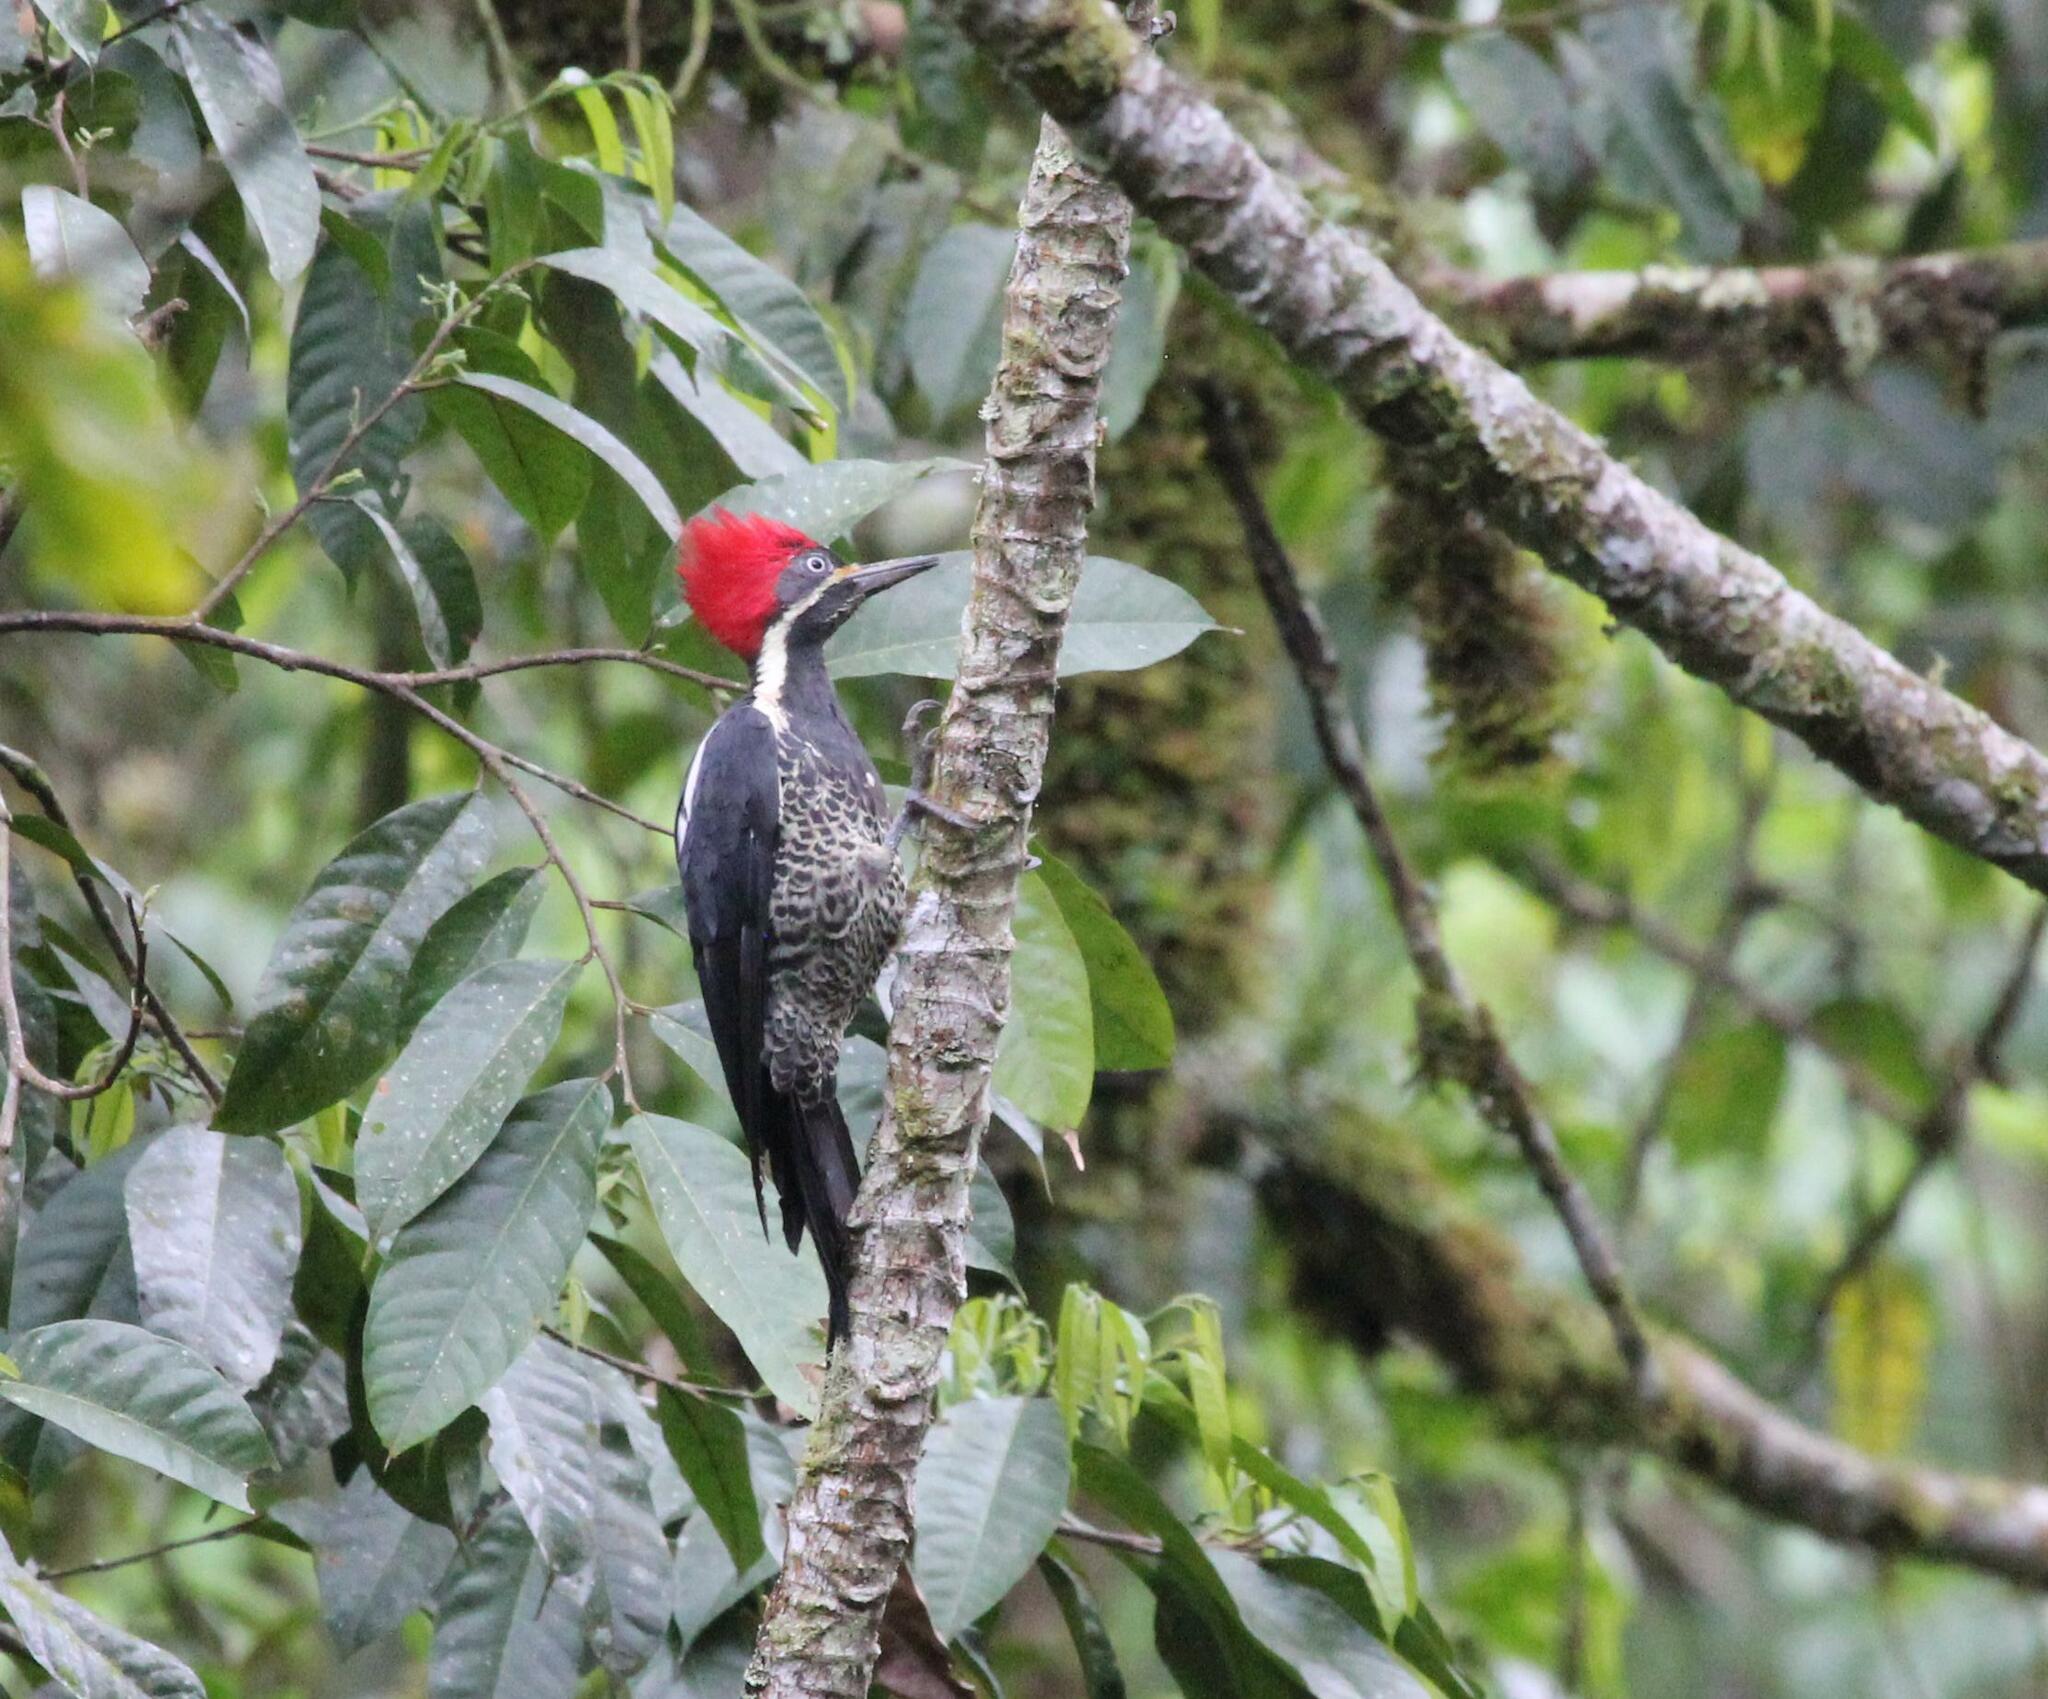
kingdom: Animalia
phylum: Chordata
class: Aves
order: Piciformes
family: Picidae
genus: Dryocopus
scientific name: Dryocopus lineatus
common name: Lineated woodpecker
